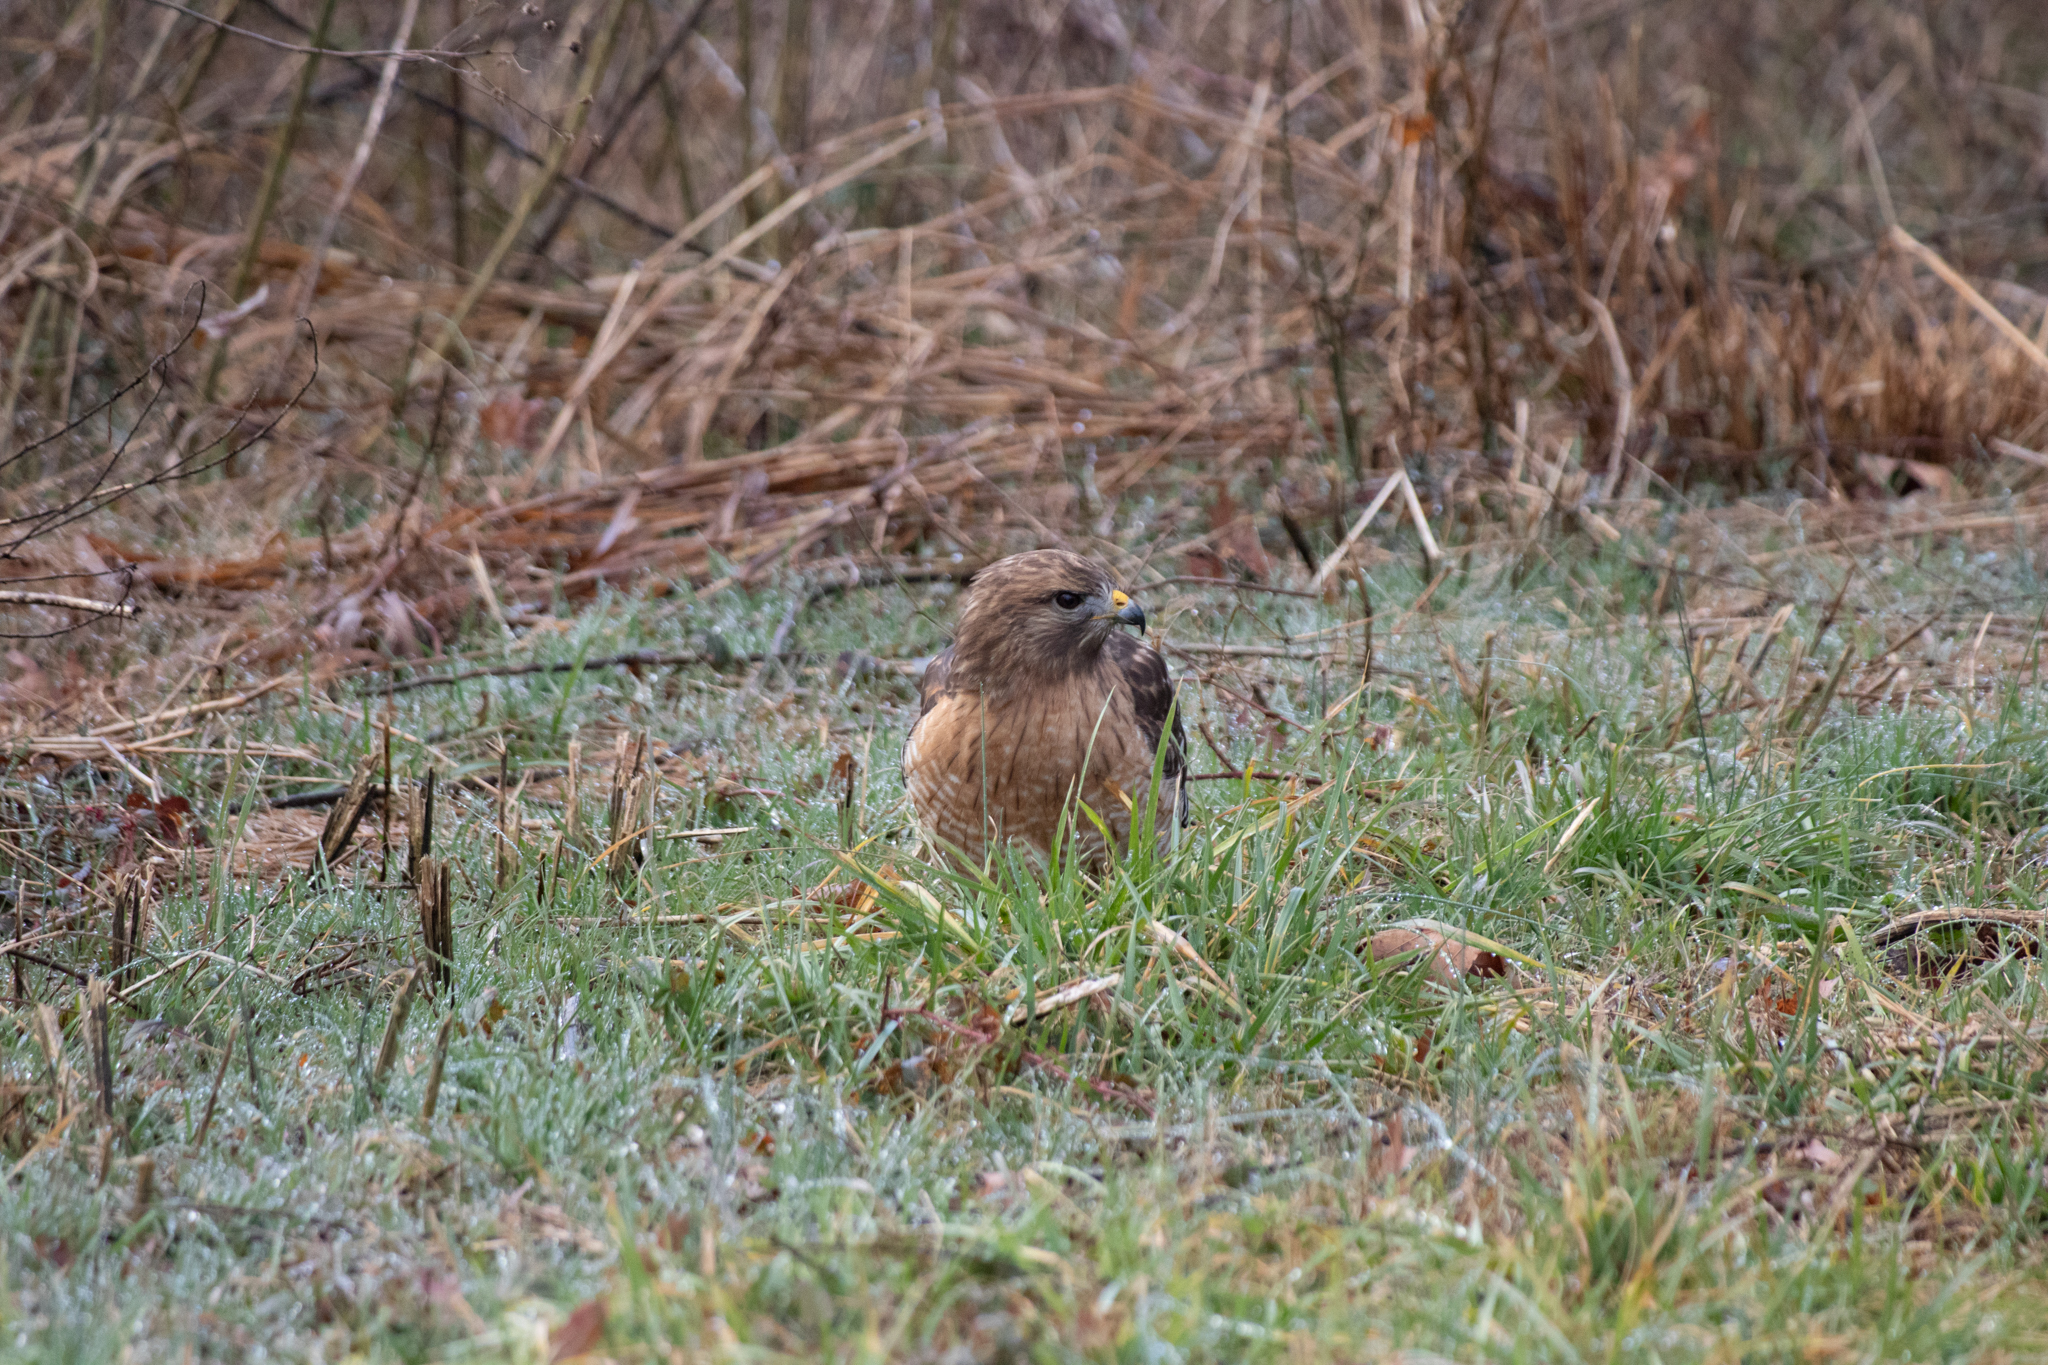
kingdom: Animalia
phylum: Chordata
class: Aves
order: Accipitriformes
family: Accipitridae
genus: Buteo
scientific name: Buteo lineatus
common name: Red-shouldered hawk
